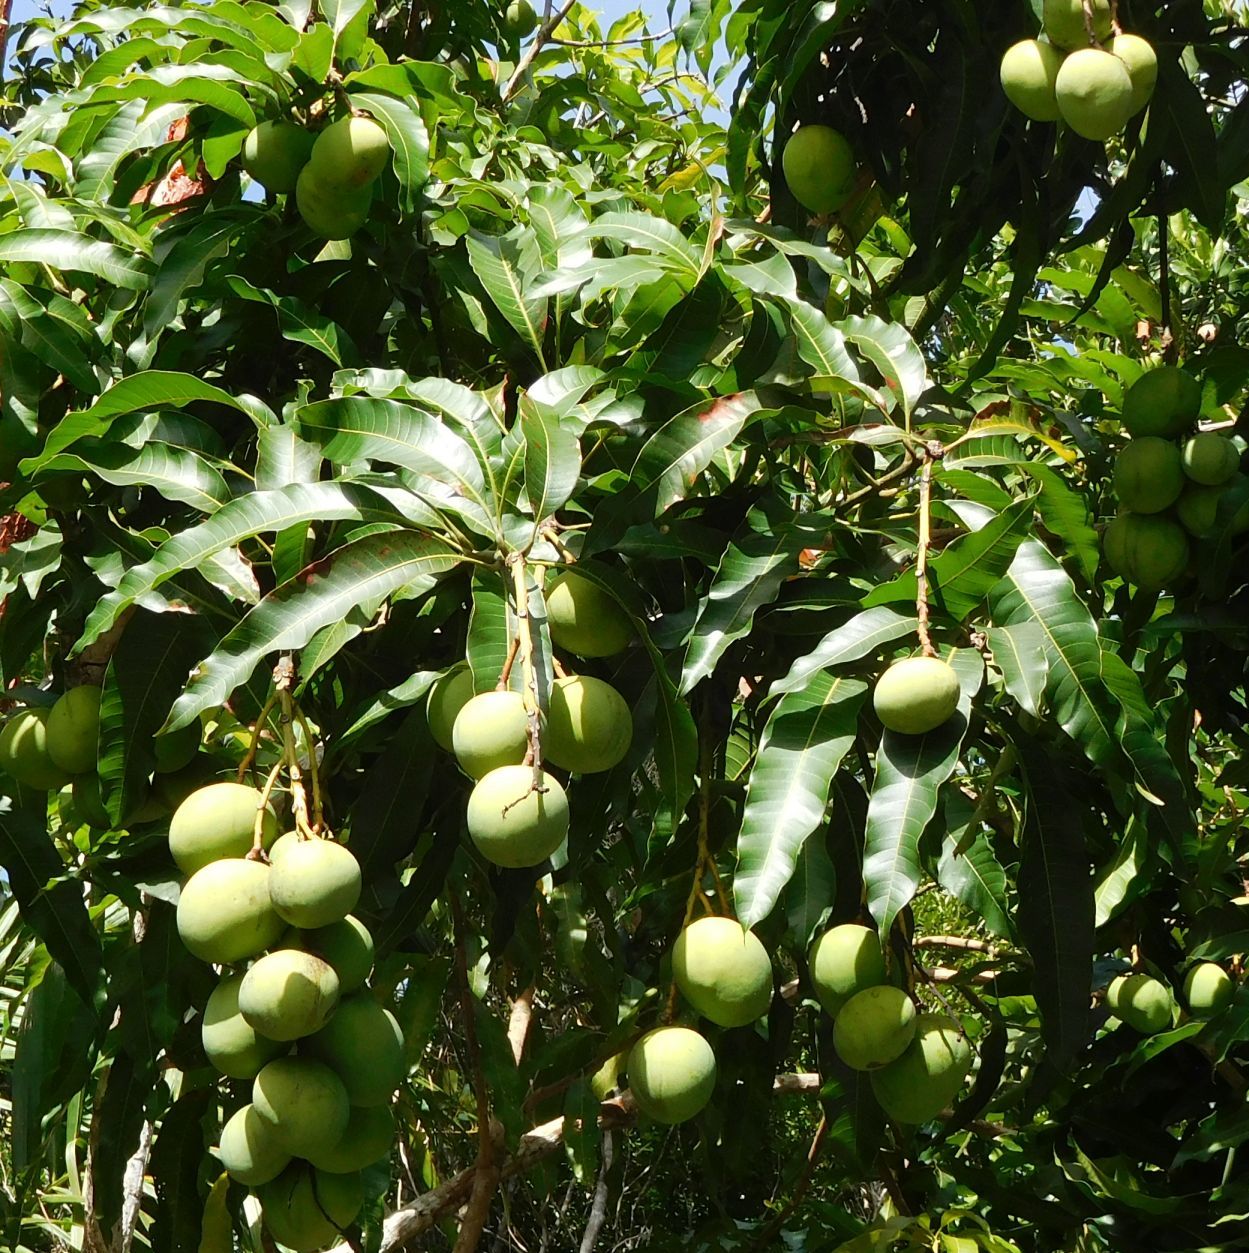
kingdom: Plantae
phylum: Tracheophyta
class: Magnoliopsida
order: Sapindales
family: Anacardiaceae
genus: Mangifera
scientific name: Mangifera indica
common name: Mango
